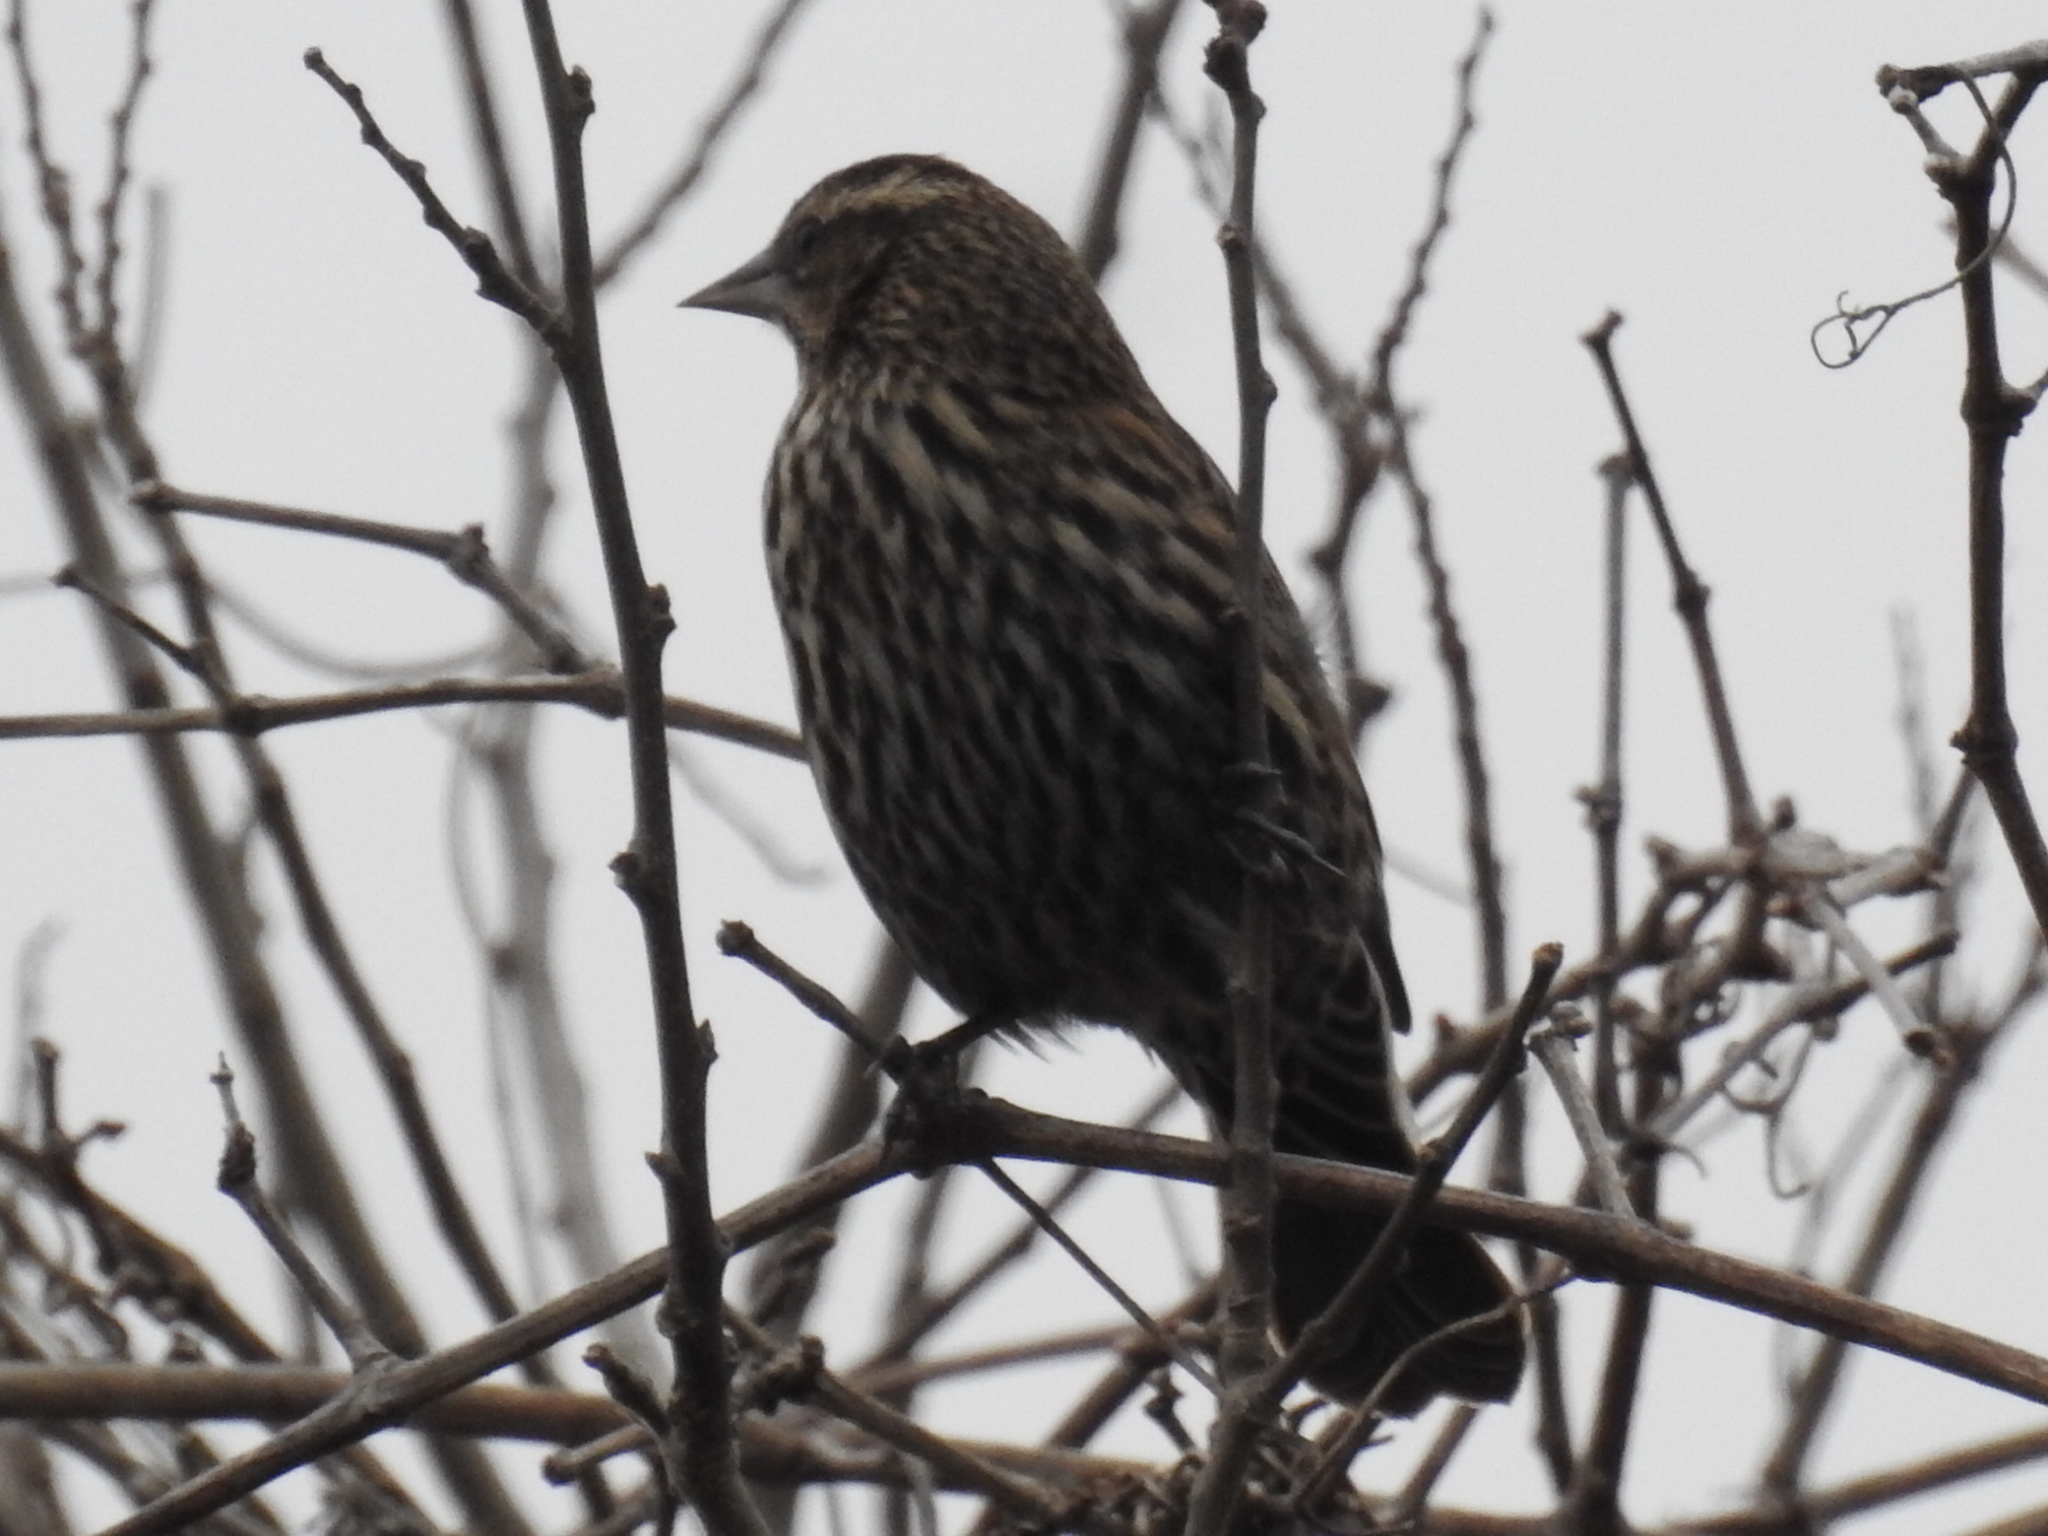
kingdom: Animalia
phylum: Chordata
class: Aves
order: Passeriformes
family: Icteridae
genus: Agelaius
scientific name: Agelaius phoeniceus
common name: Red-winged blackbird
